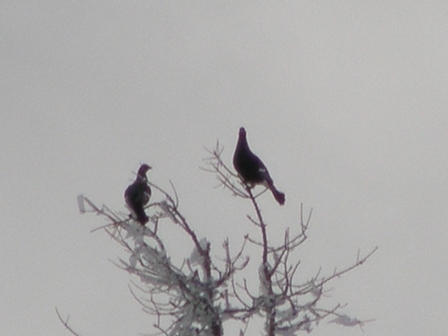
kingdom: Animalia
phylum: Chordata
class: Aves
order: Galliformes
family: Phasianidae
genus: Lyrurus
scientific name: Lyrurus tetrix
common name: Black grouse
